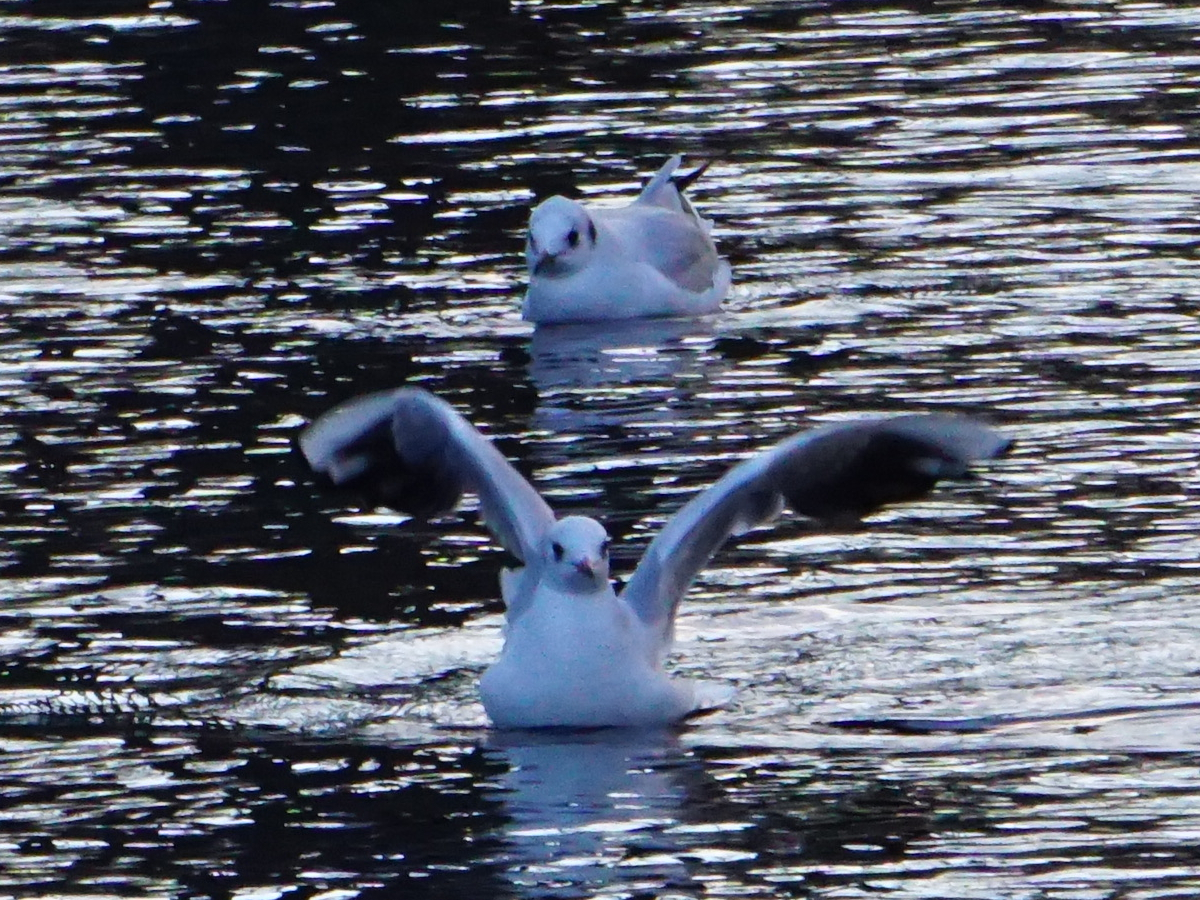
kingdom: Animalia
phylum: Chordata
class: Aves
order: Charadriiformes
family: Laridae
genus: Chroicocephalus
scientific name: Chroicocephalus ridibundus
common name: Black-headed gull
